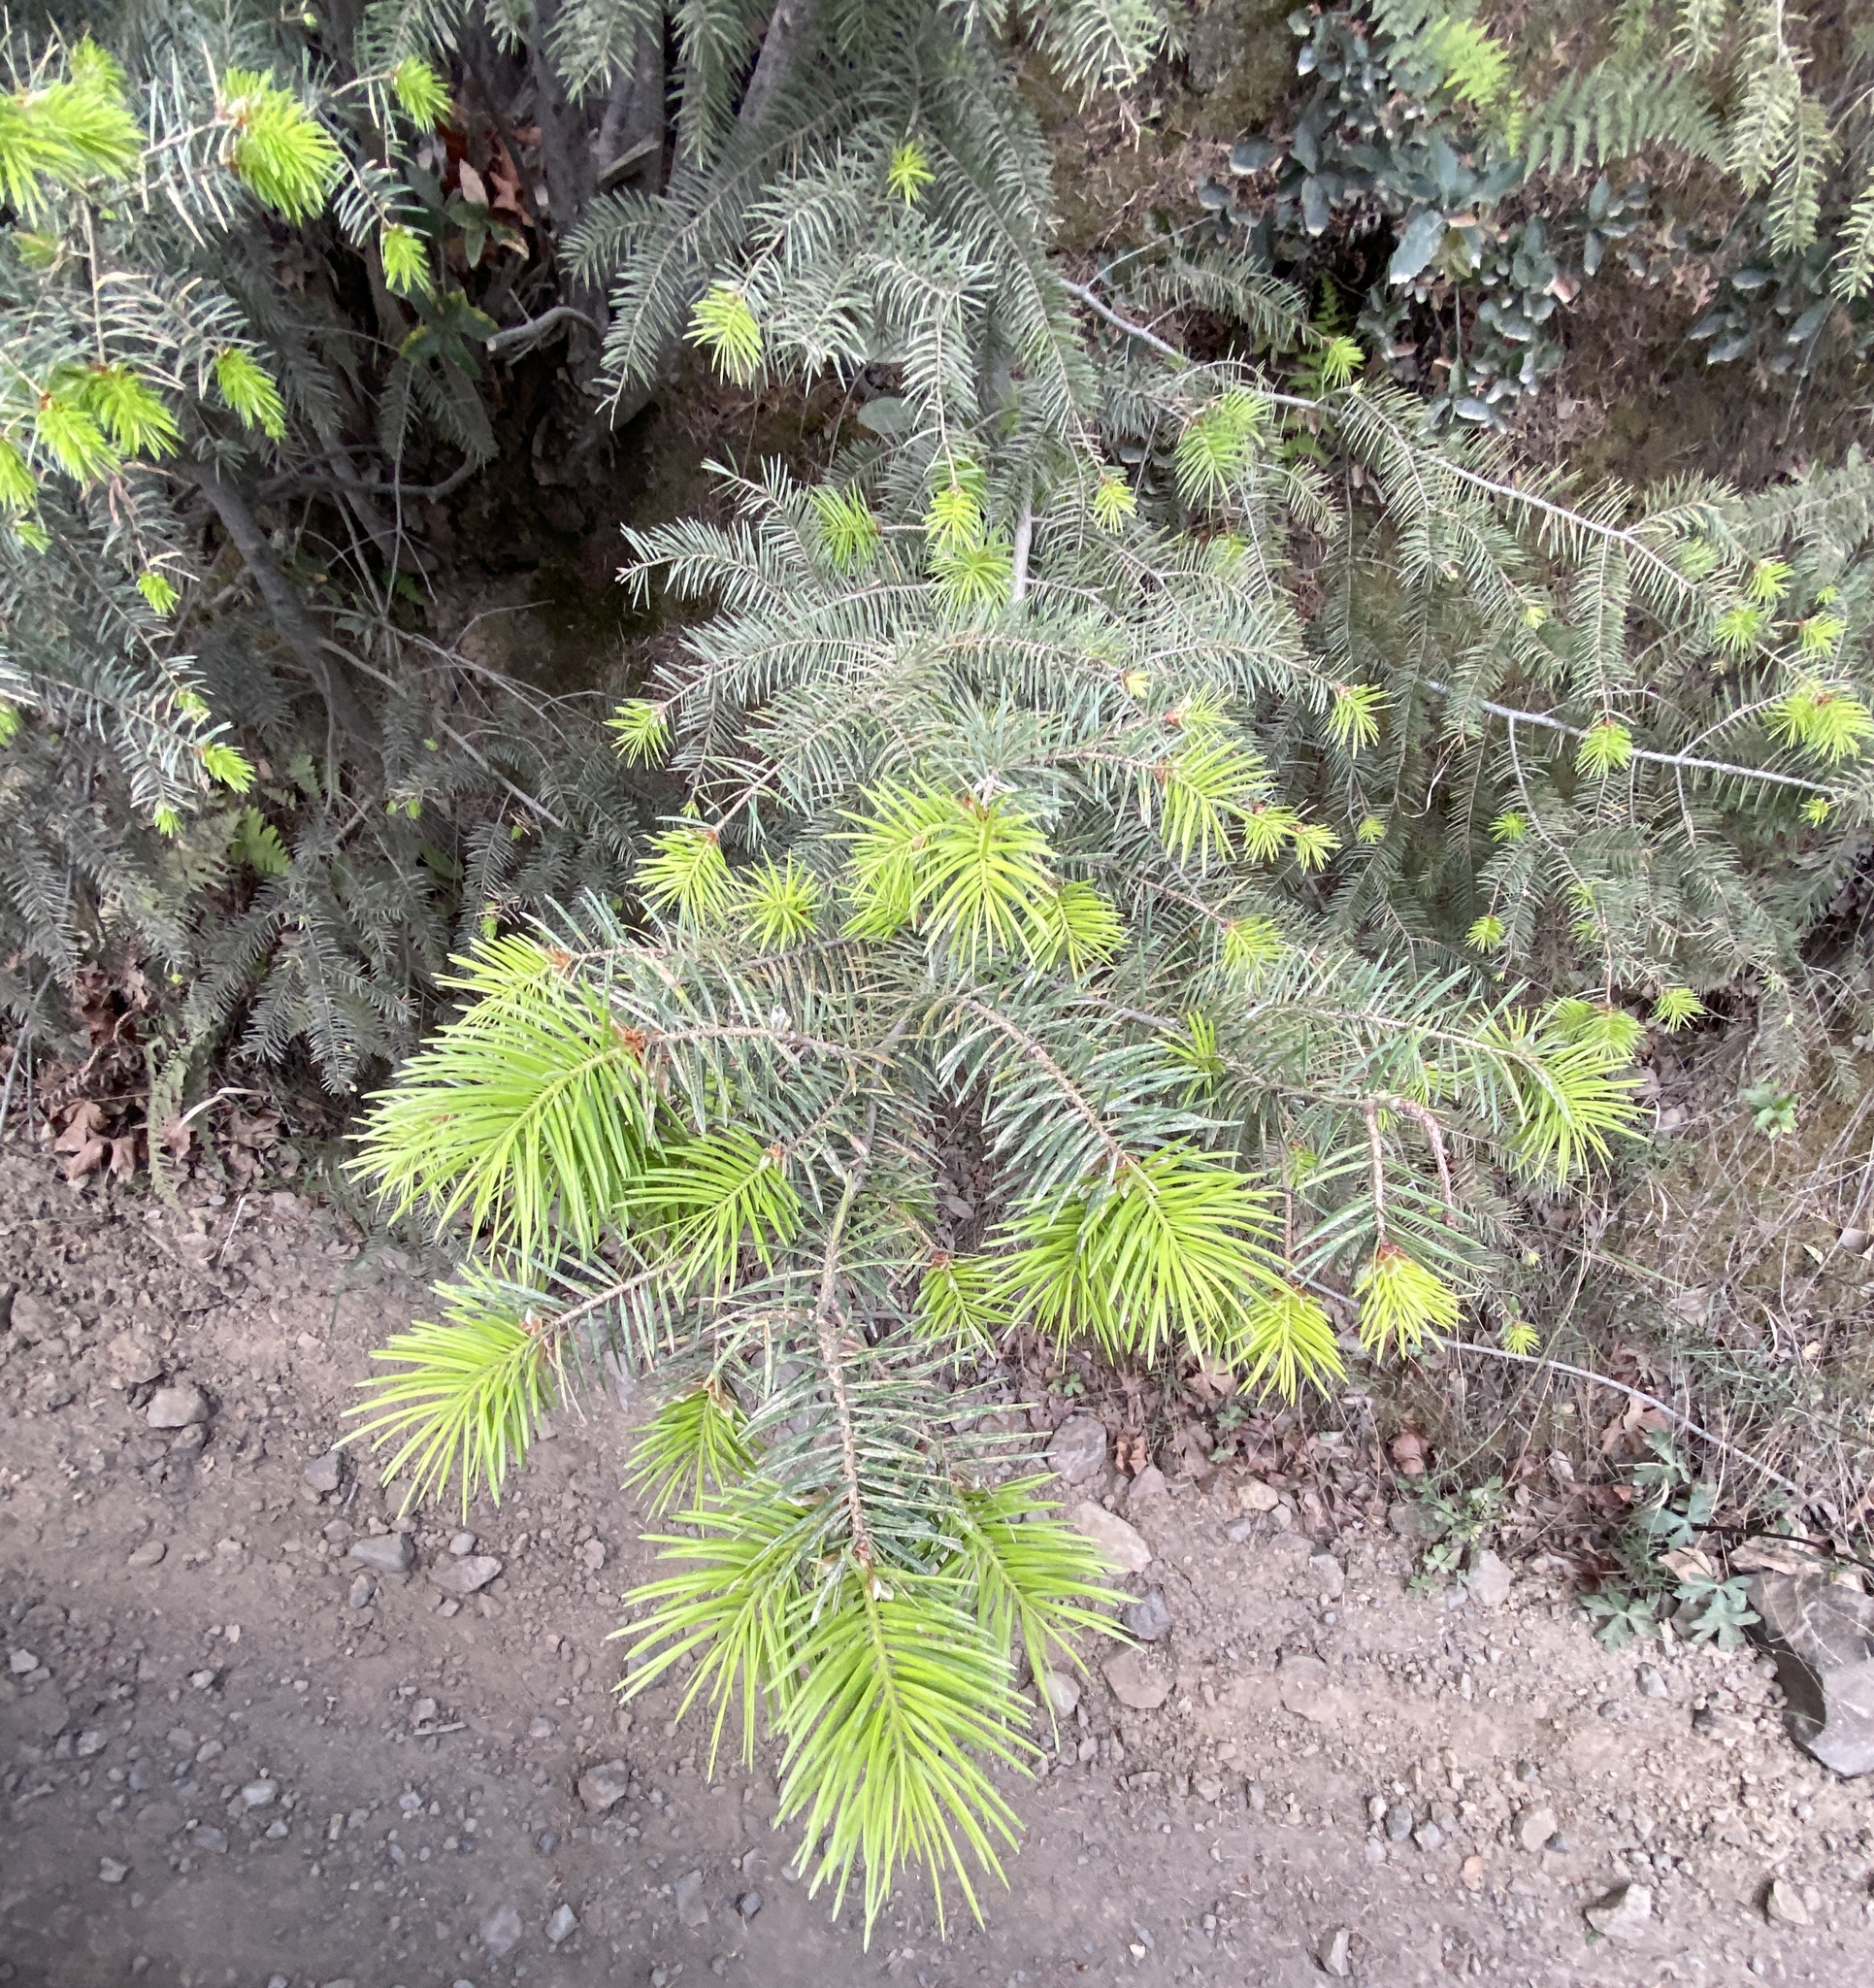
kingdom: Plantae
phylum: Tracheophyta
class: Pinopsida
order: Pinales
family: Pinaceae
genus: Pseudotsuga
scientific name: Pseudotsuga macrocarpa
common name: Big-cone douglas-fir
